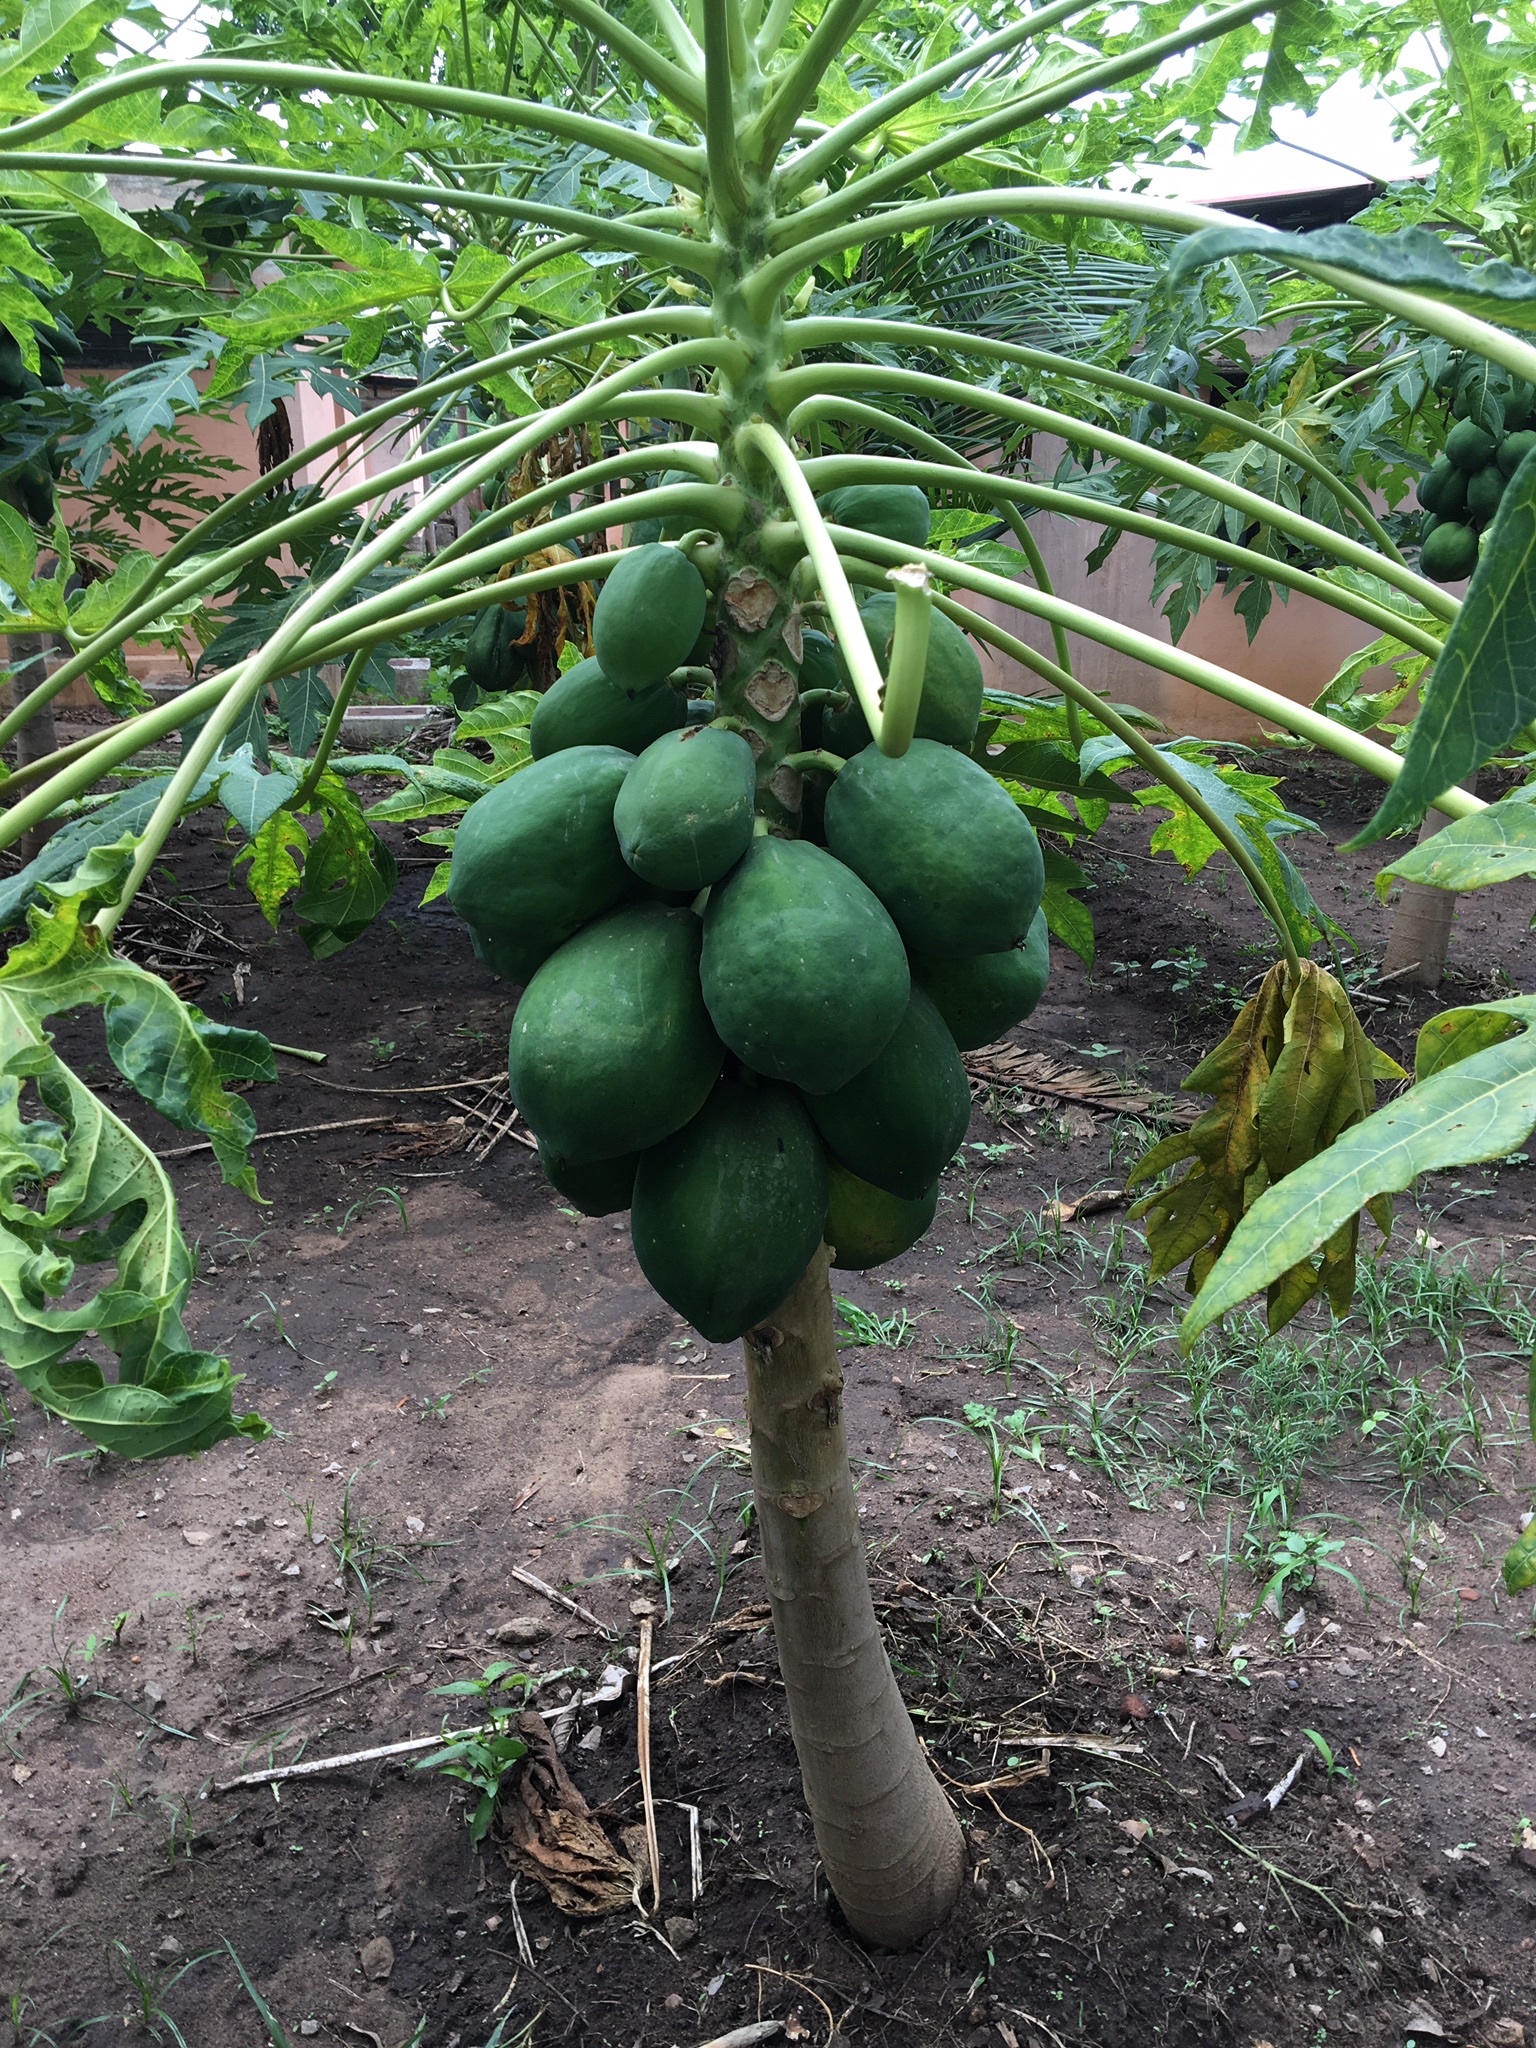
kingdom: Plantae
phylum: Tracheophyta
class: Magnoliopsida
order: Brassicales
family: Caricaceae
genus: Carica
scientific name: Carica papaya
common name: Papaya
